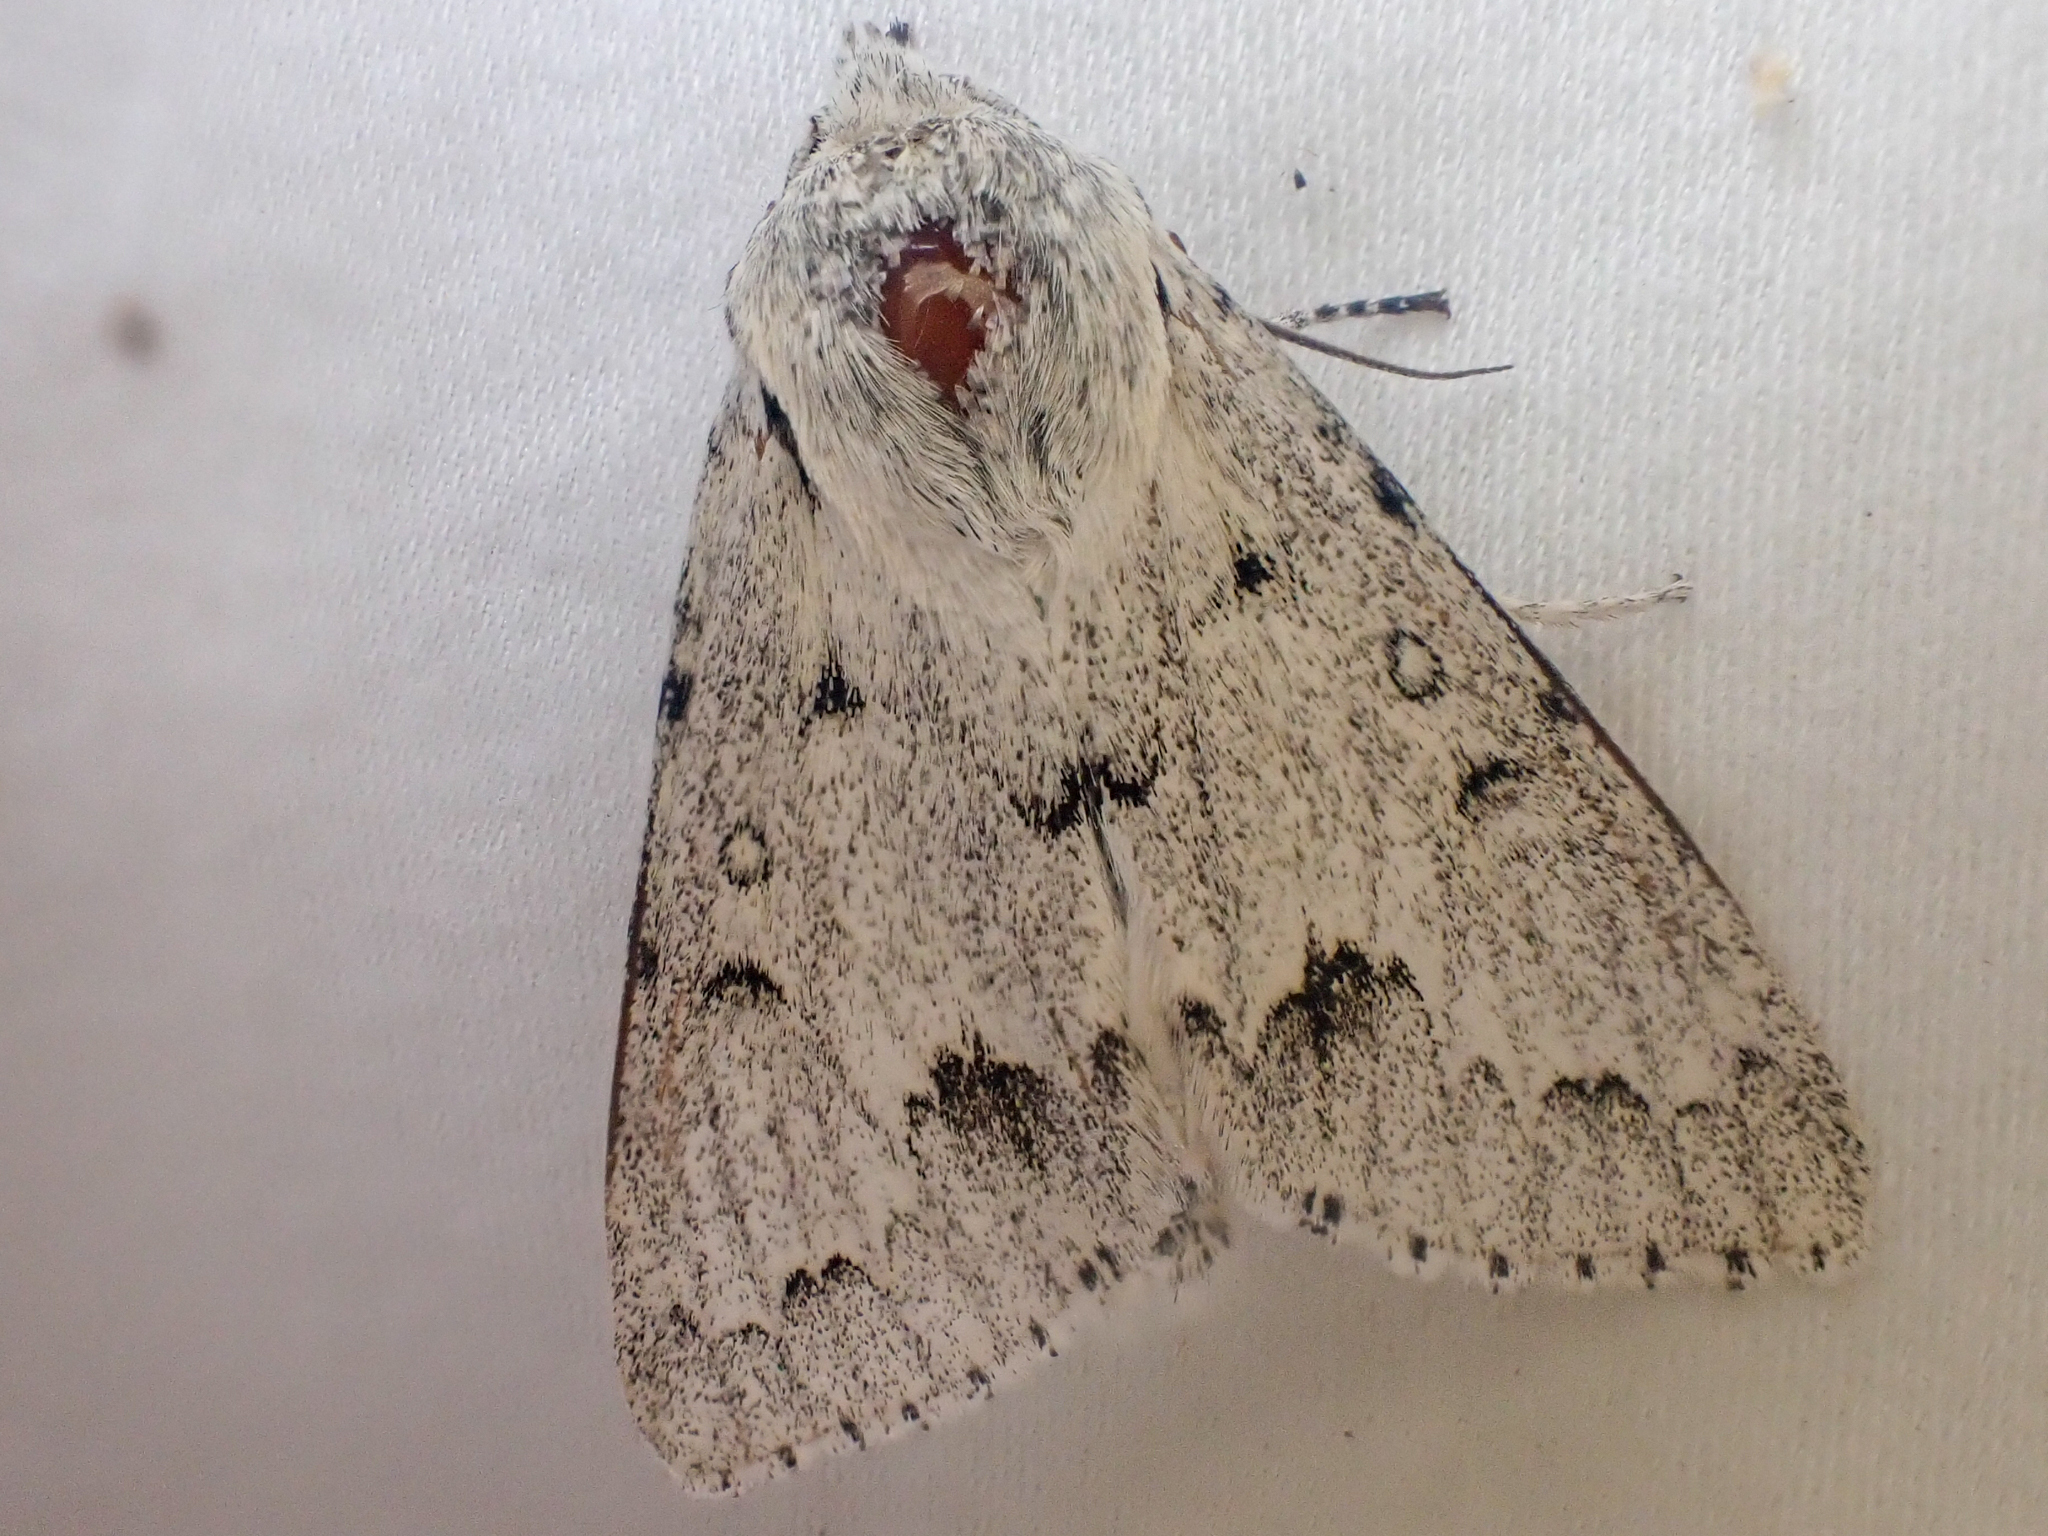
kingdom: Animalia
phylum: Arthropoda
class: Insecta
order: Lepidoptera
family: Noctuidae
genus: Acronicta
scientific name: Acronicta vulpina
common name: Miller dagger
